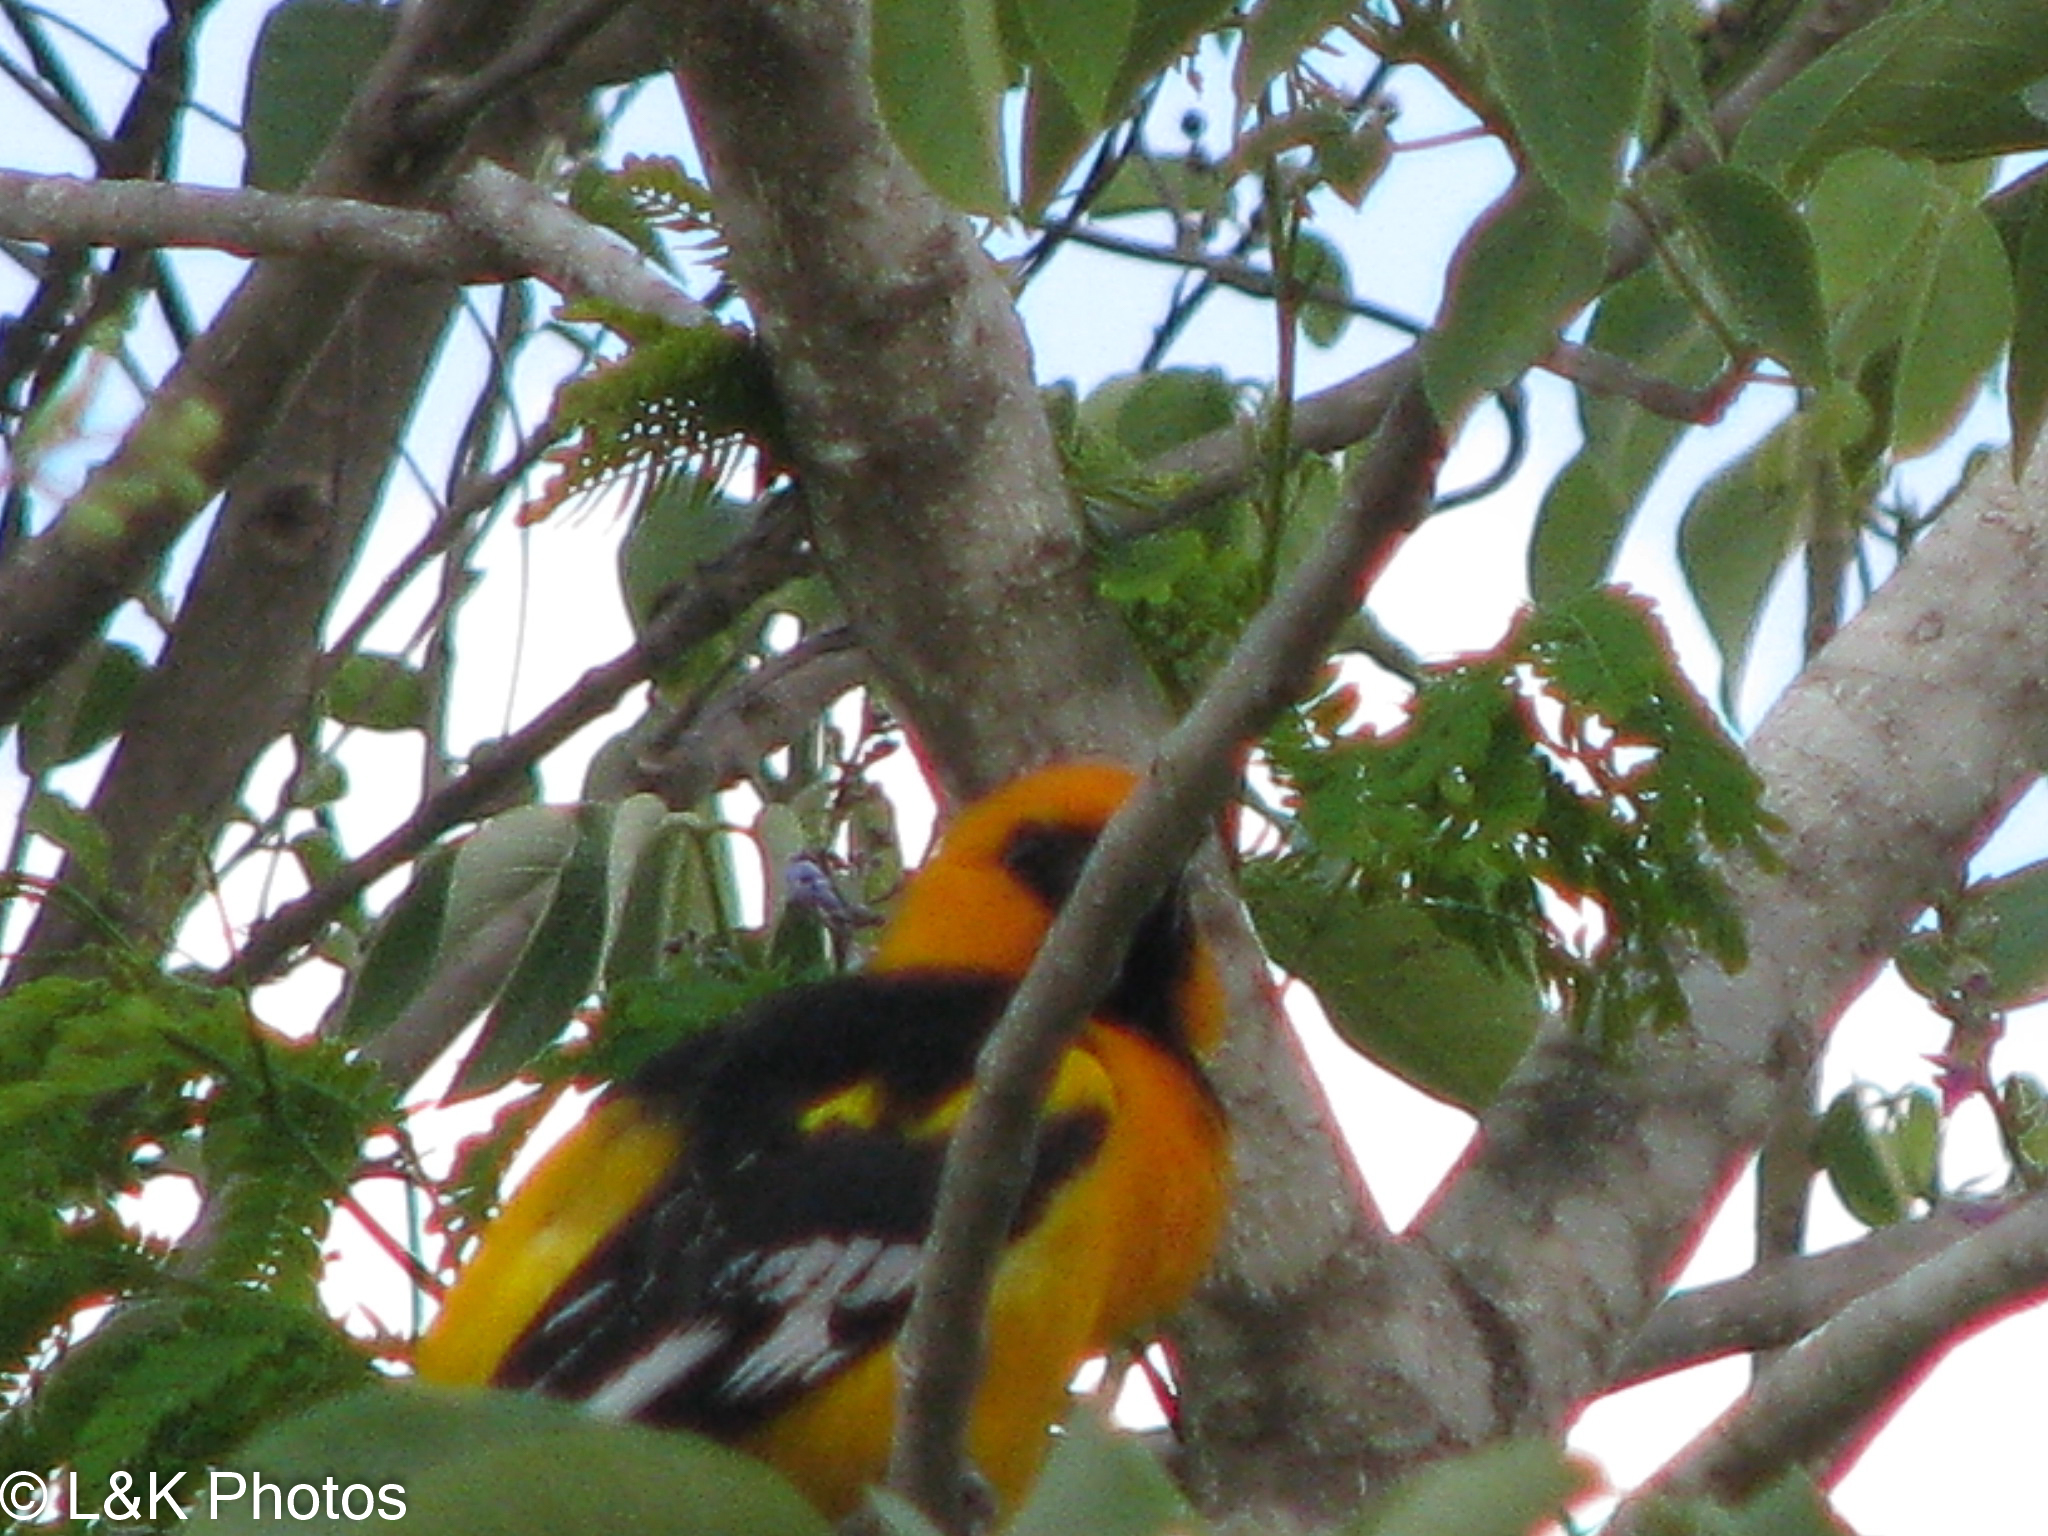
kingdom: Animalia
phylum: Chordata
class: Aves
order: Passeriformes
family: Icteridae
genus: Icterus
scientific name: Icterus gularis
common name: Altamira oriole
